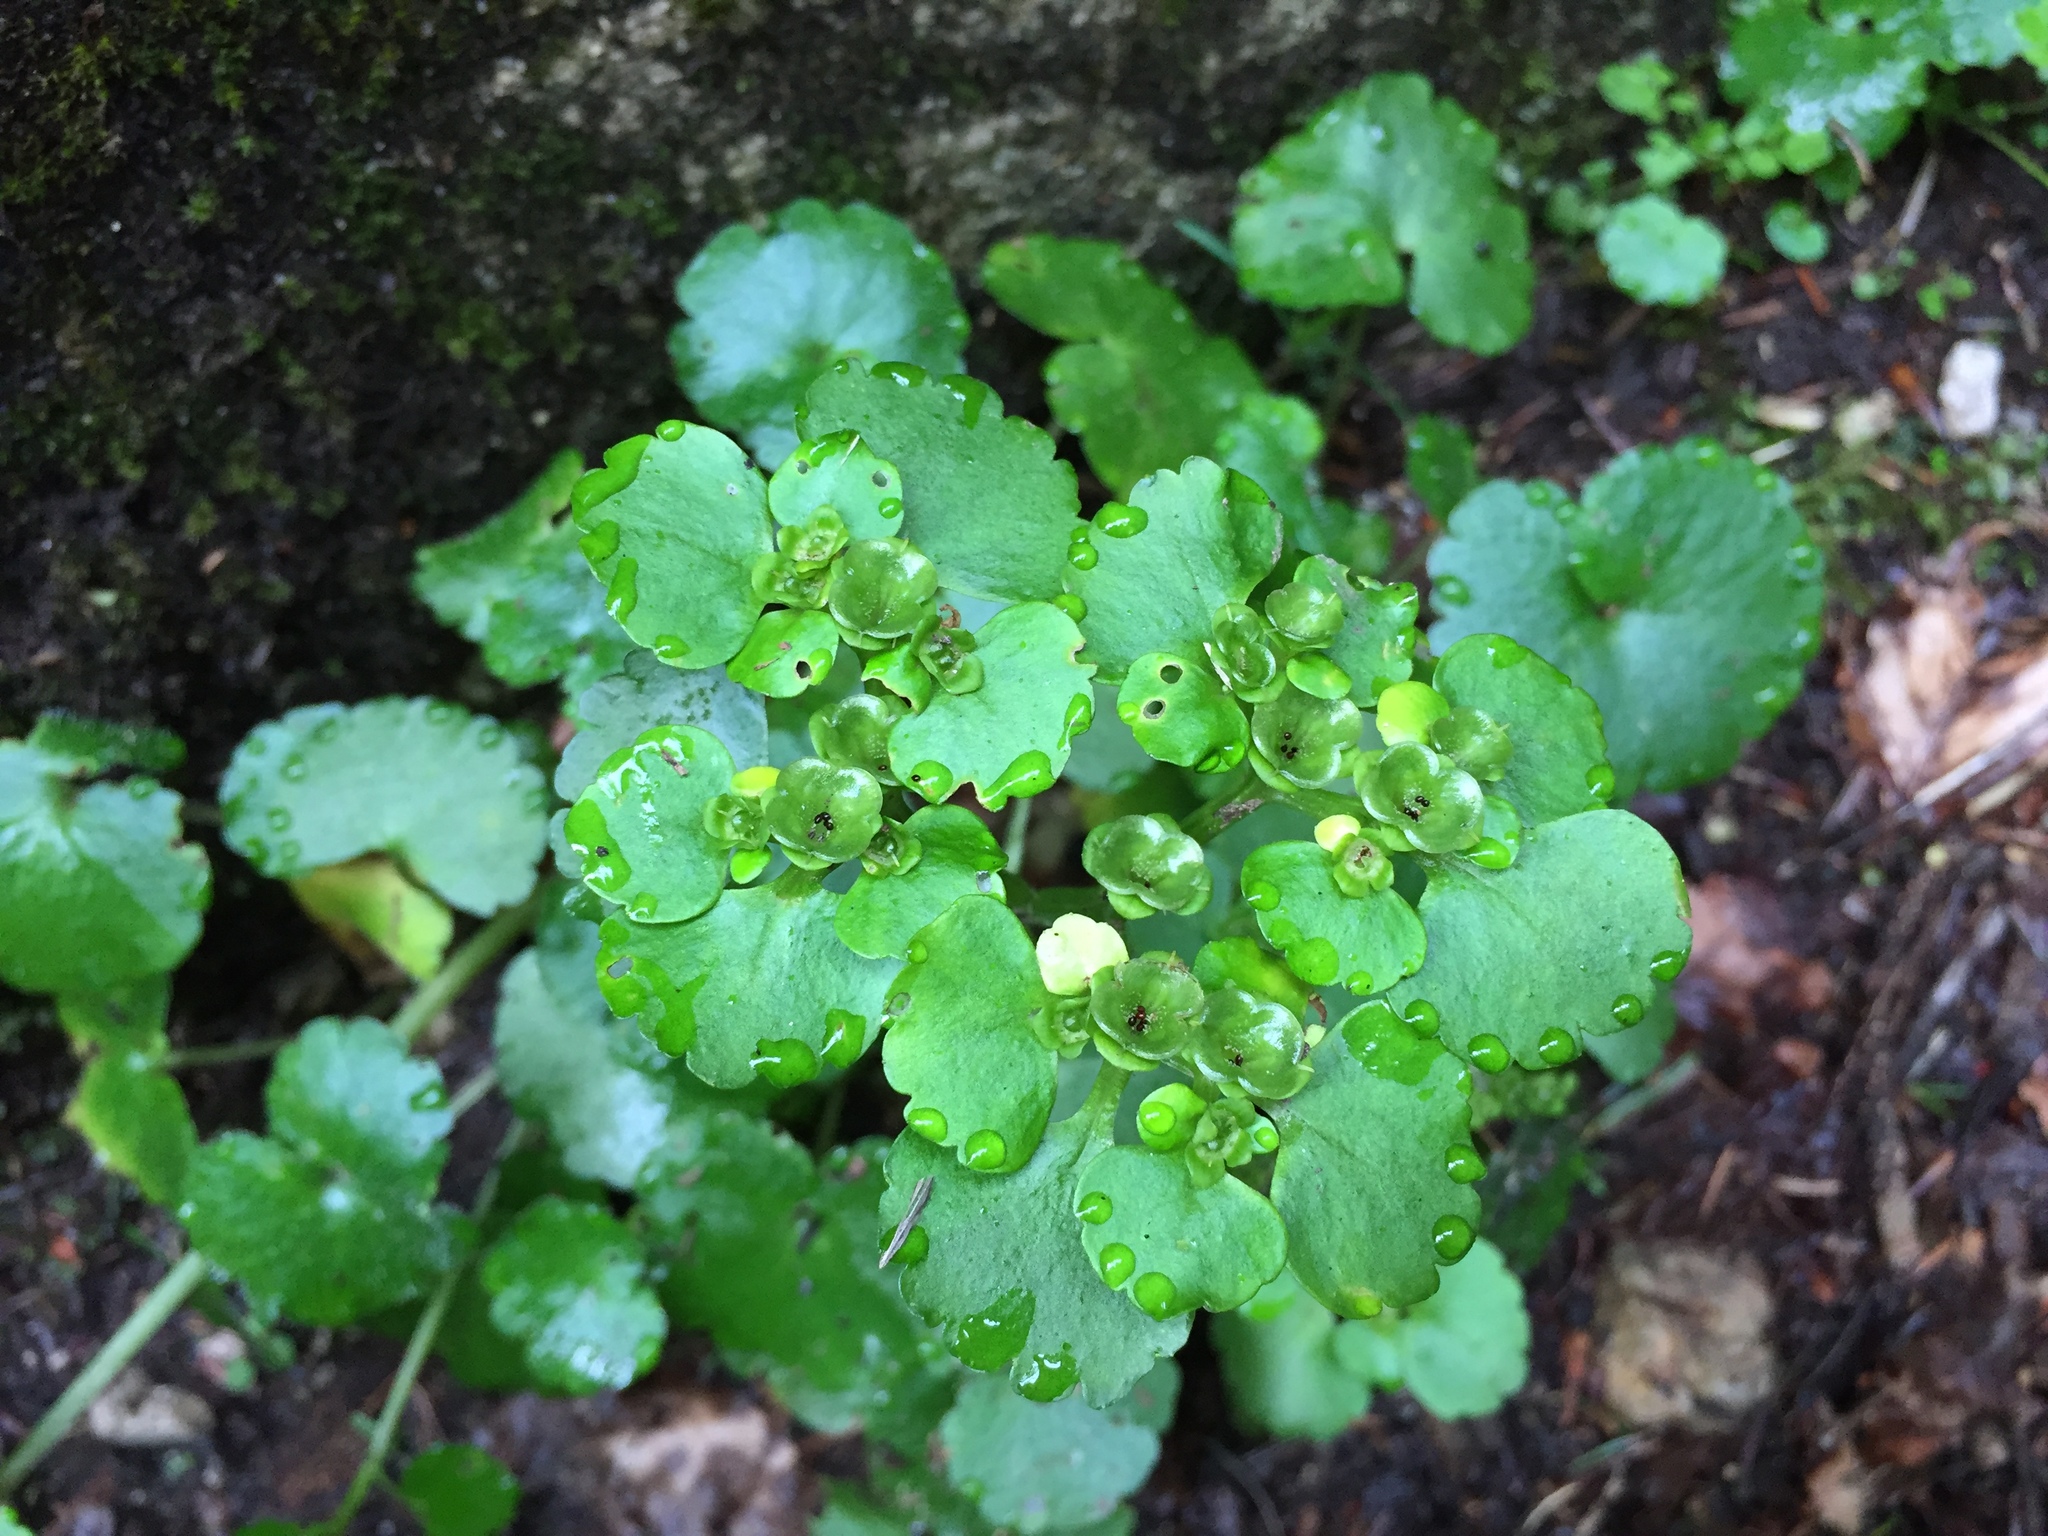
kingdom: Plantae
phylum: Tracheophyta
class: Magnoliopsida
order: Saxifragales
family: Saxifragaceae
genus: Chrysosplenium
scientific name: Chrysosplenium alternifolium
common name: Alternate-leaved golden-saxifrage
